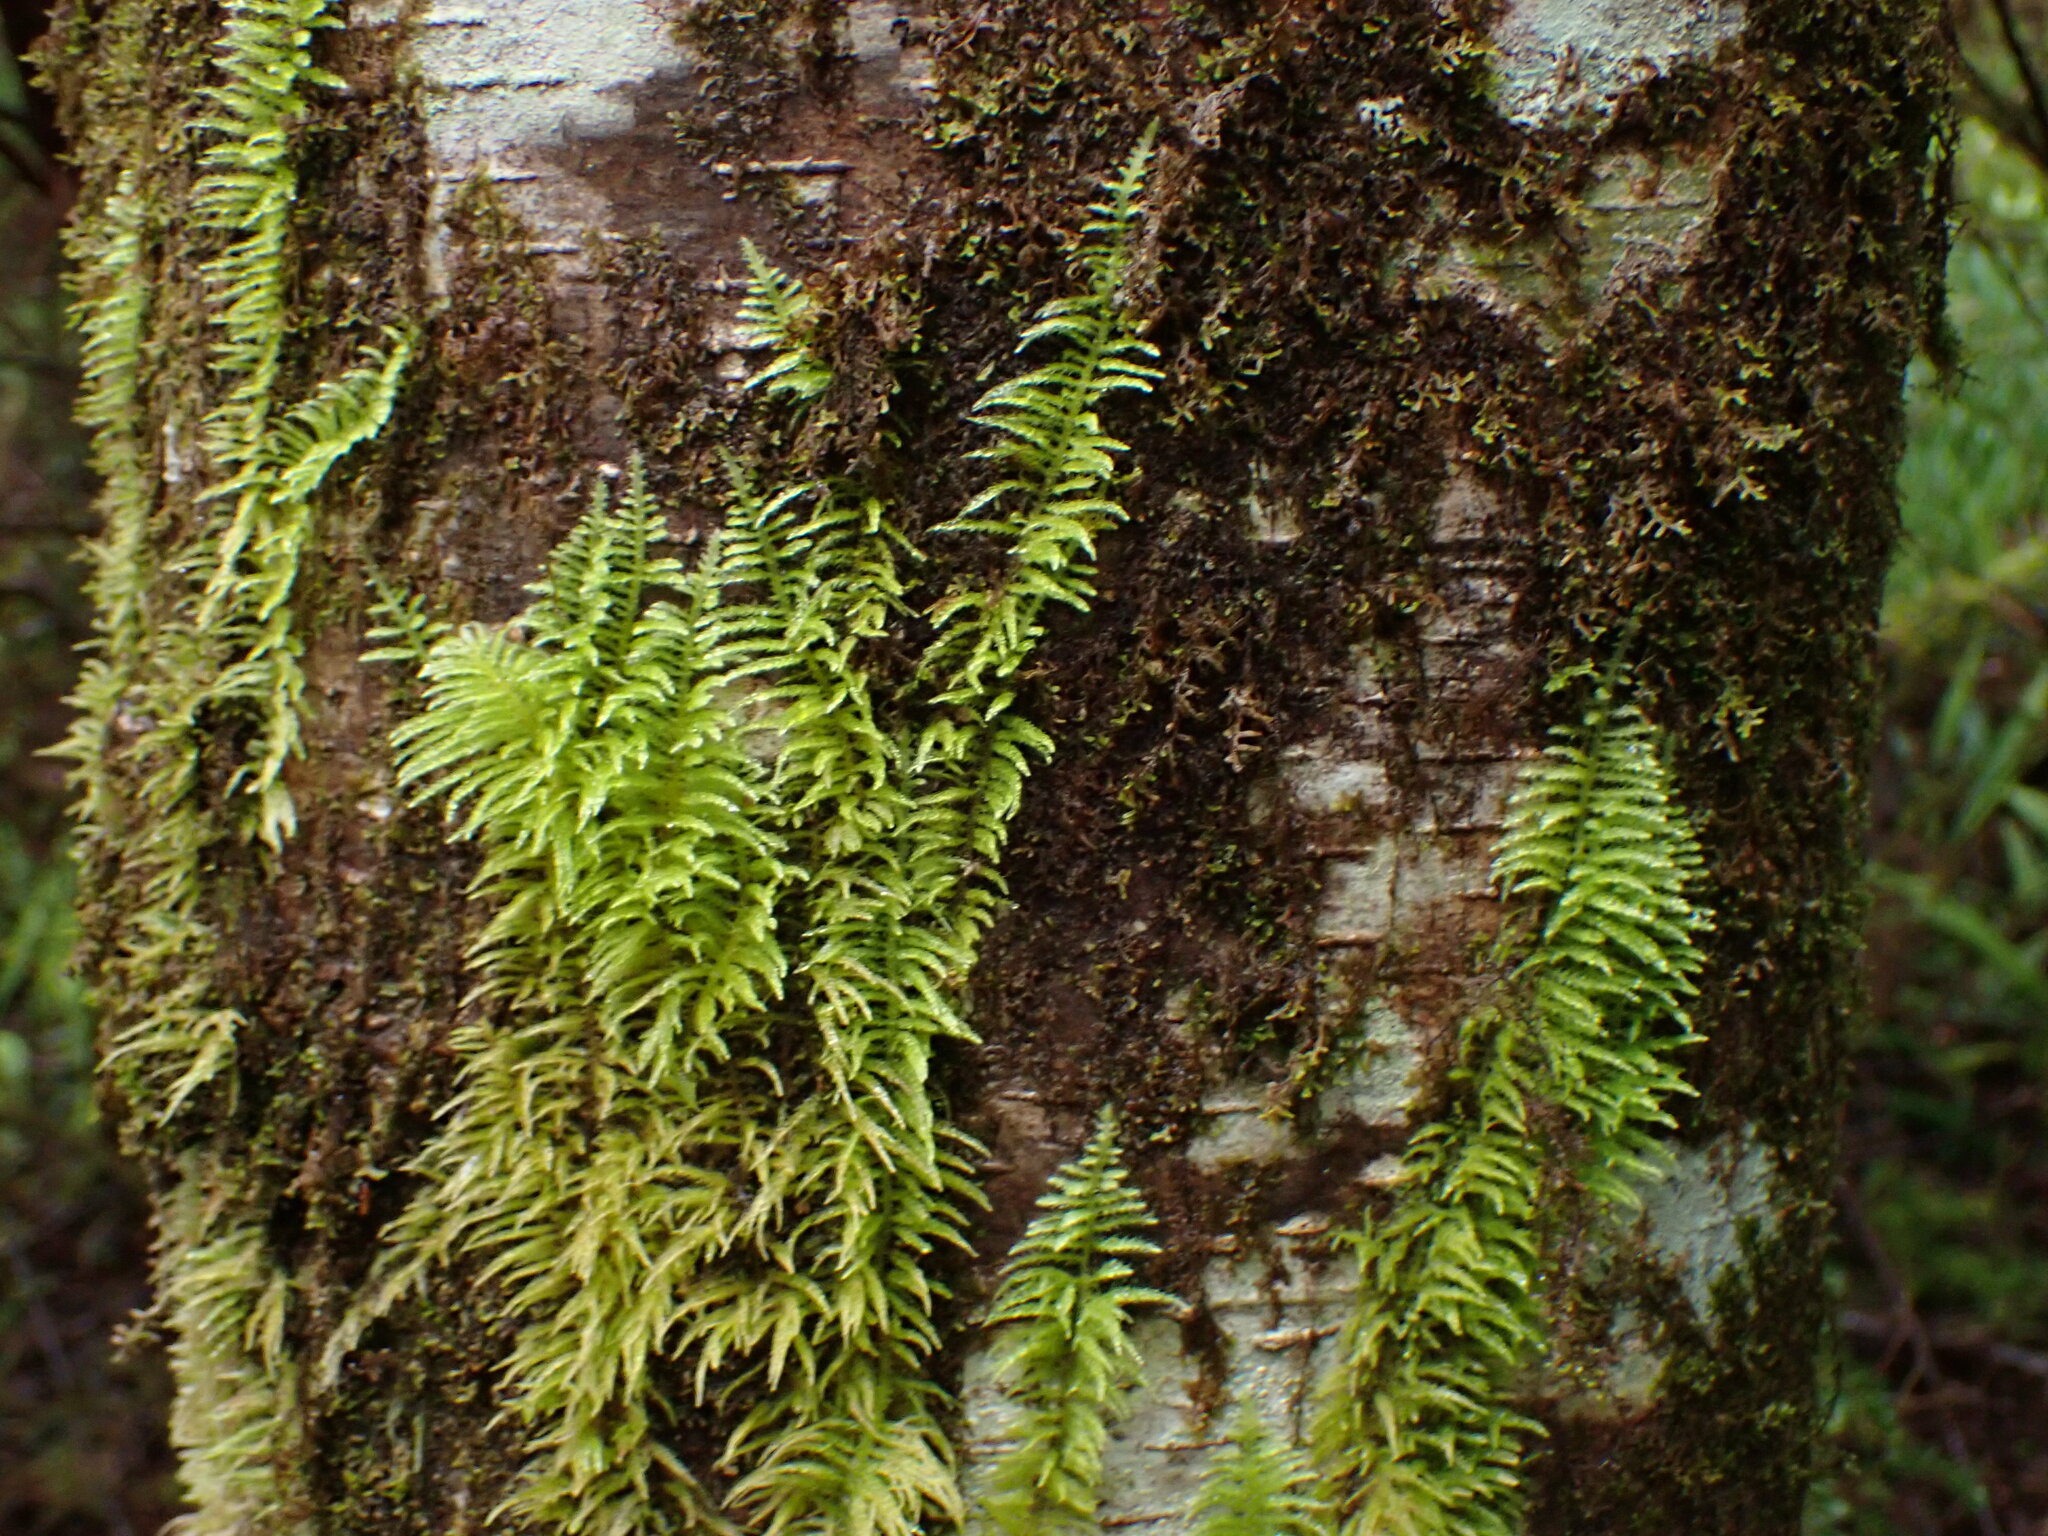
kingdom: Plantae
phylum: Bryophyta
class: Bryopsida
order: Hypnales
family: Brachytheciaceae
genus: Kindbergia
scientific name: Kindbergia oregana
